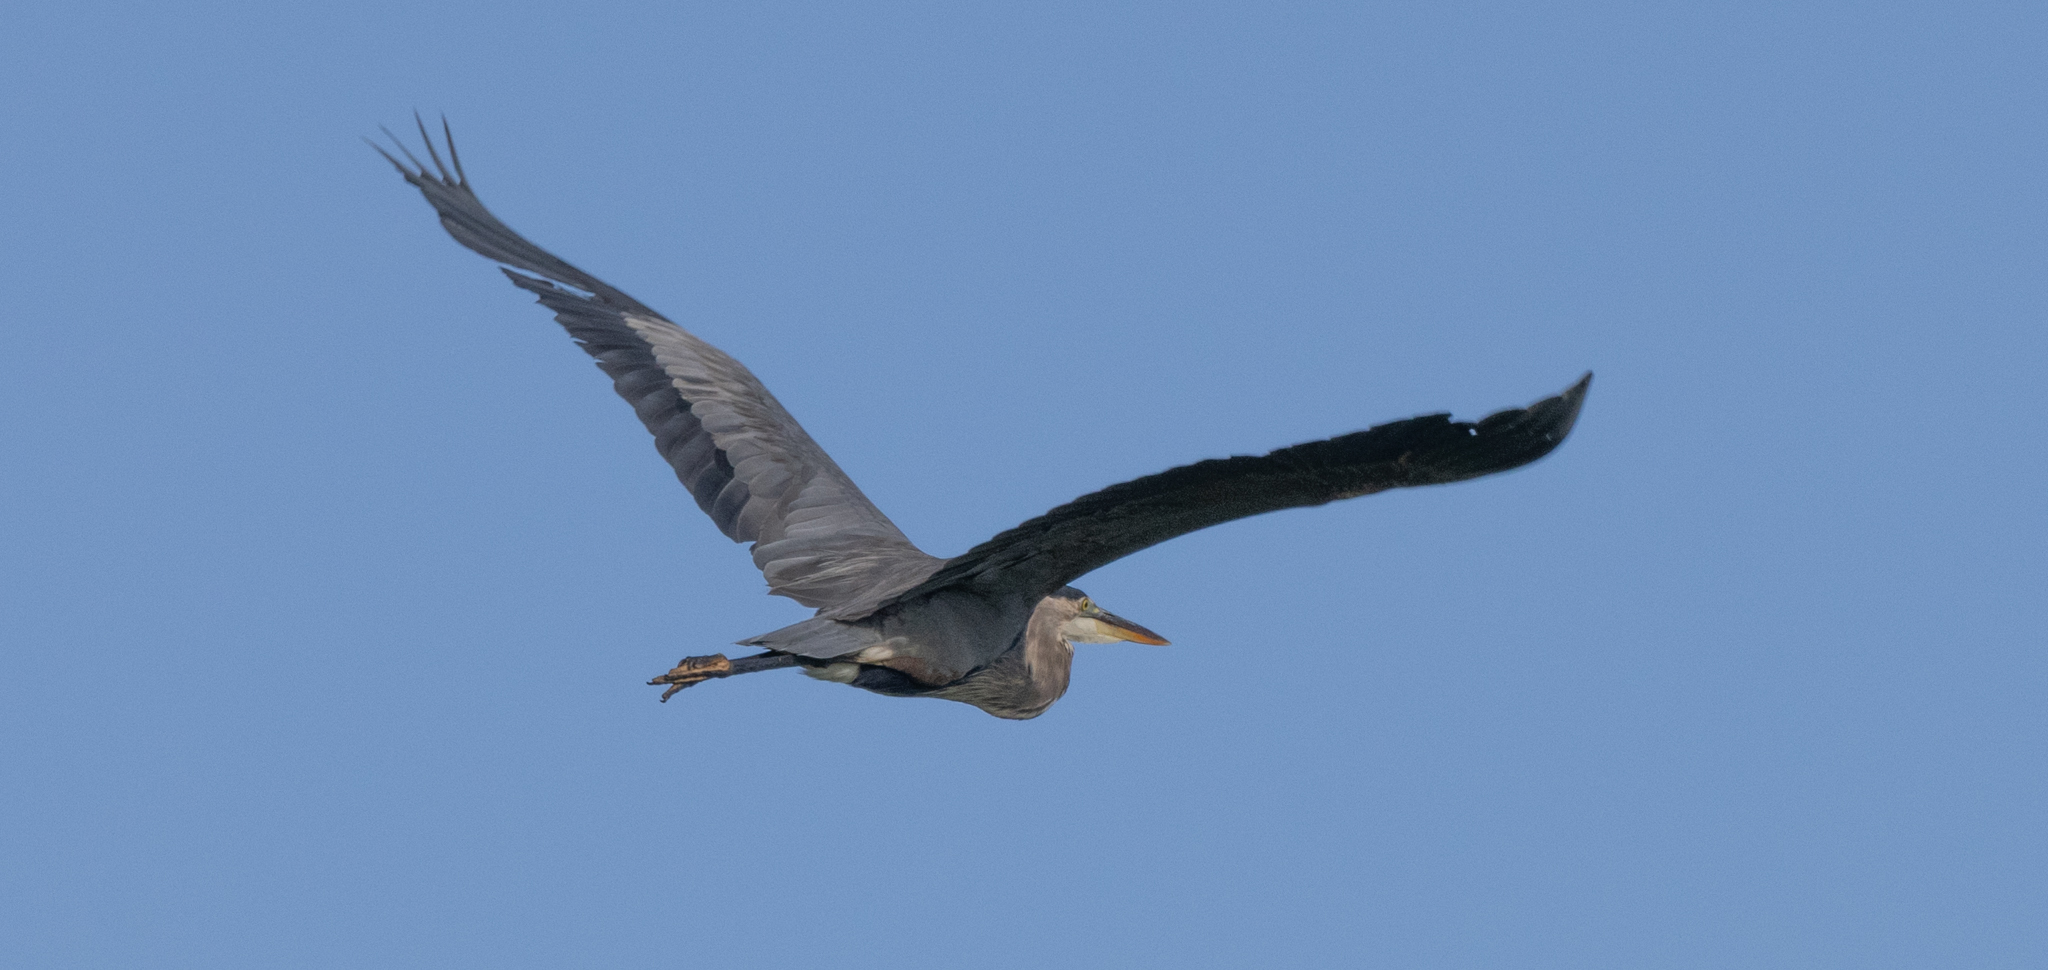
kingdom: Animalia
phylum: Chordata
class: Aves
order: Pelecaniformes
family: Ardeidae
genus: Ardea
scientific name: Ardea herodias
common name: Great blue heron
